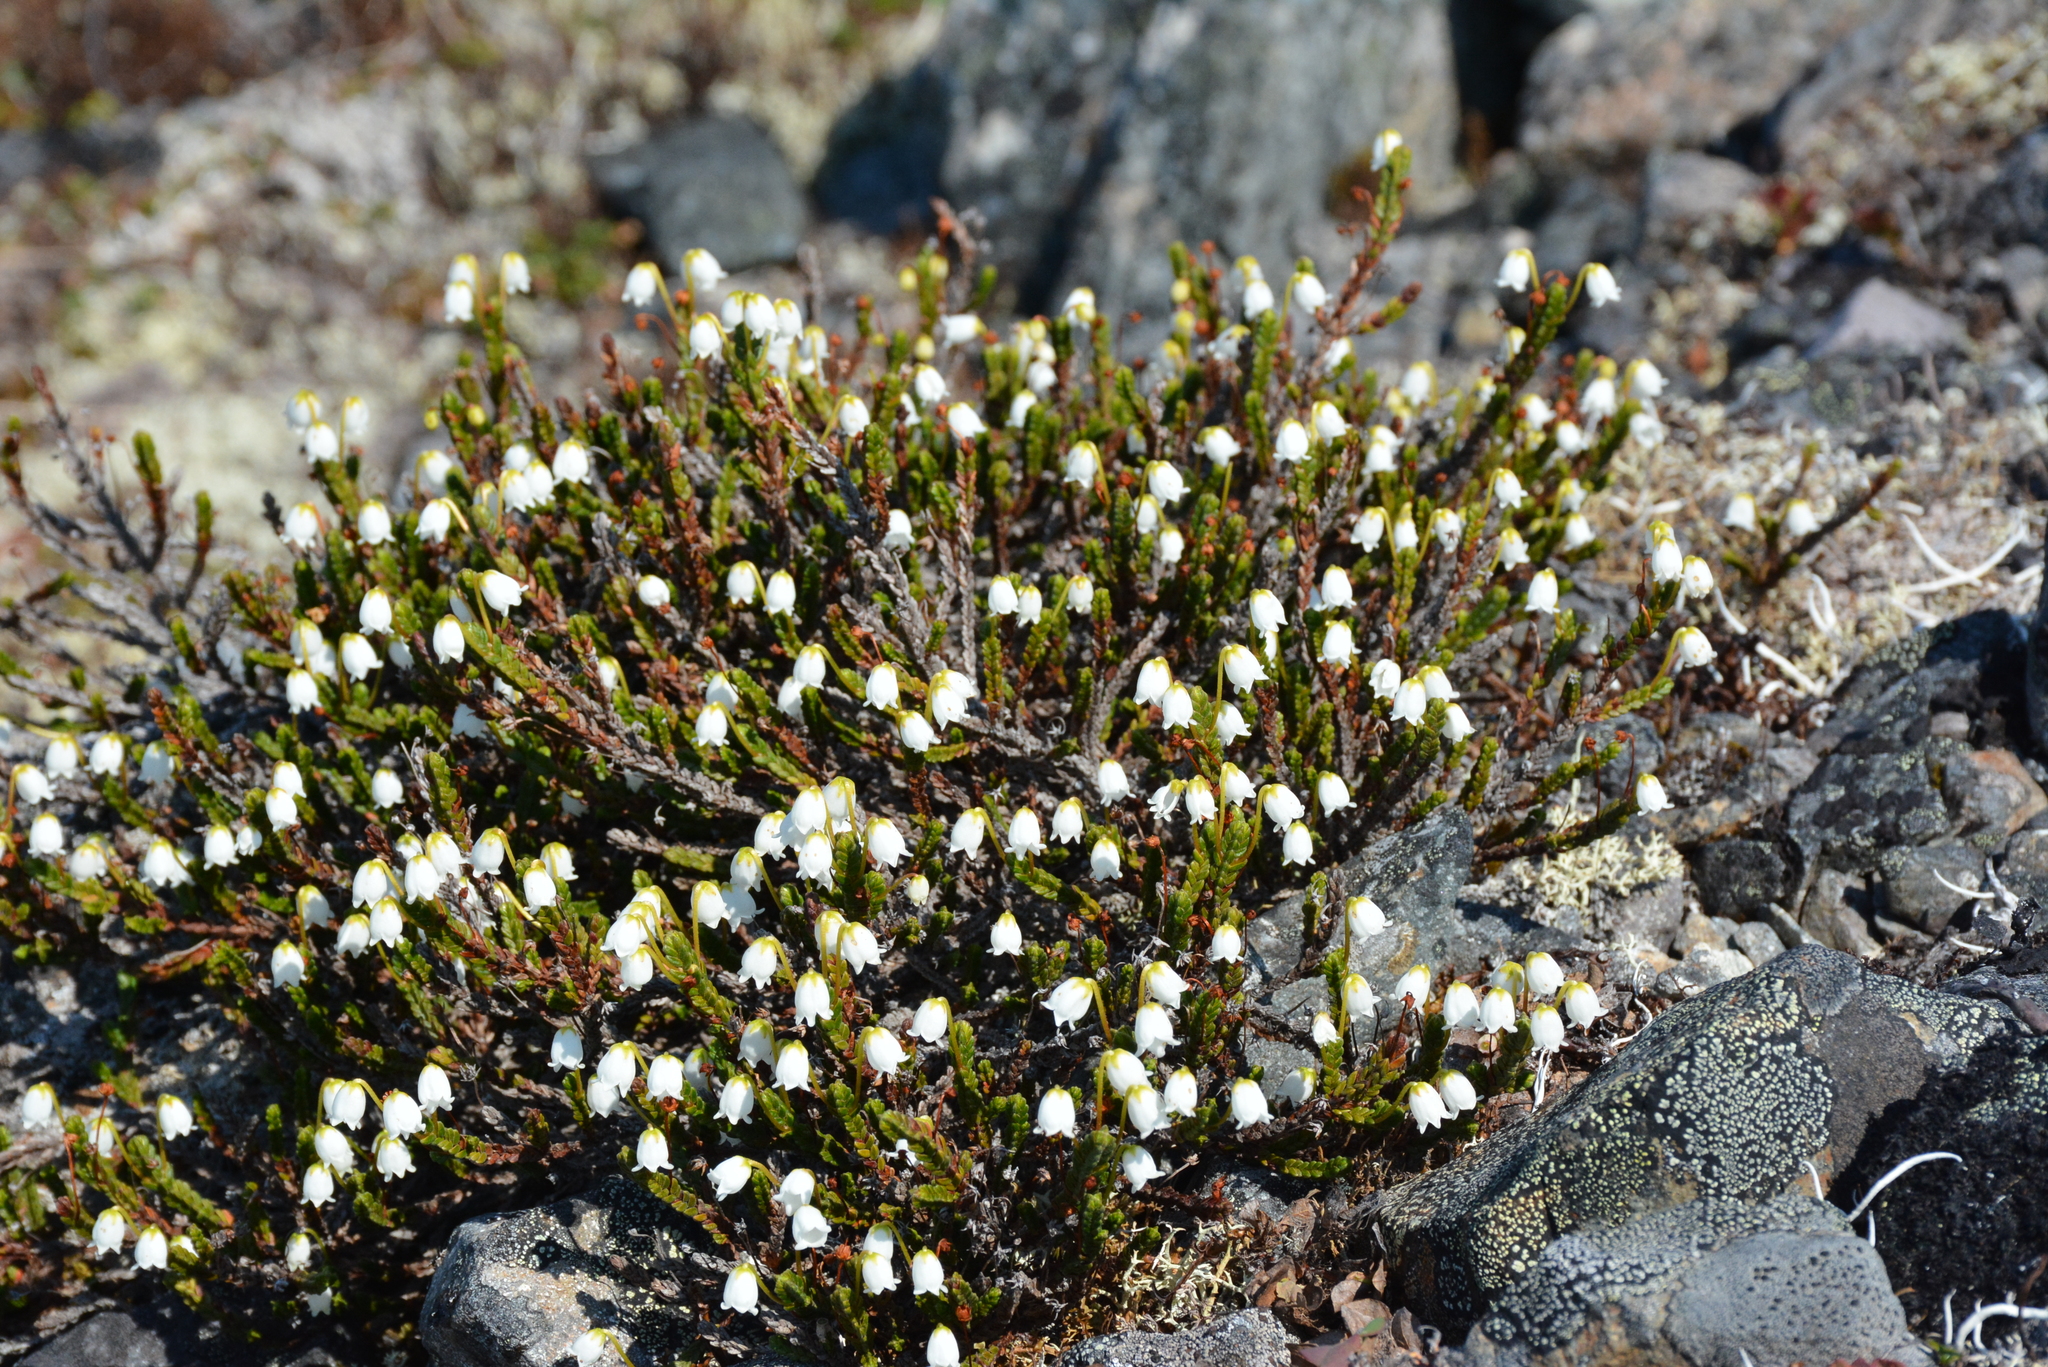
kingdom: Plantae
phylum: Tracheophyta
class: Magnoliopsida
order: Ericales
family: Ericaceae
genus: Cassiope
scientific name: Cassiope tetragona
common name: Arctic bell heather
